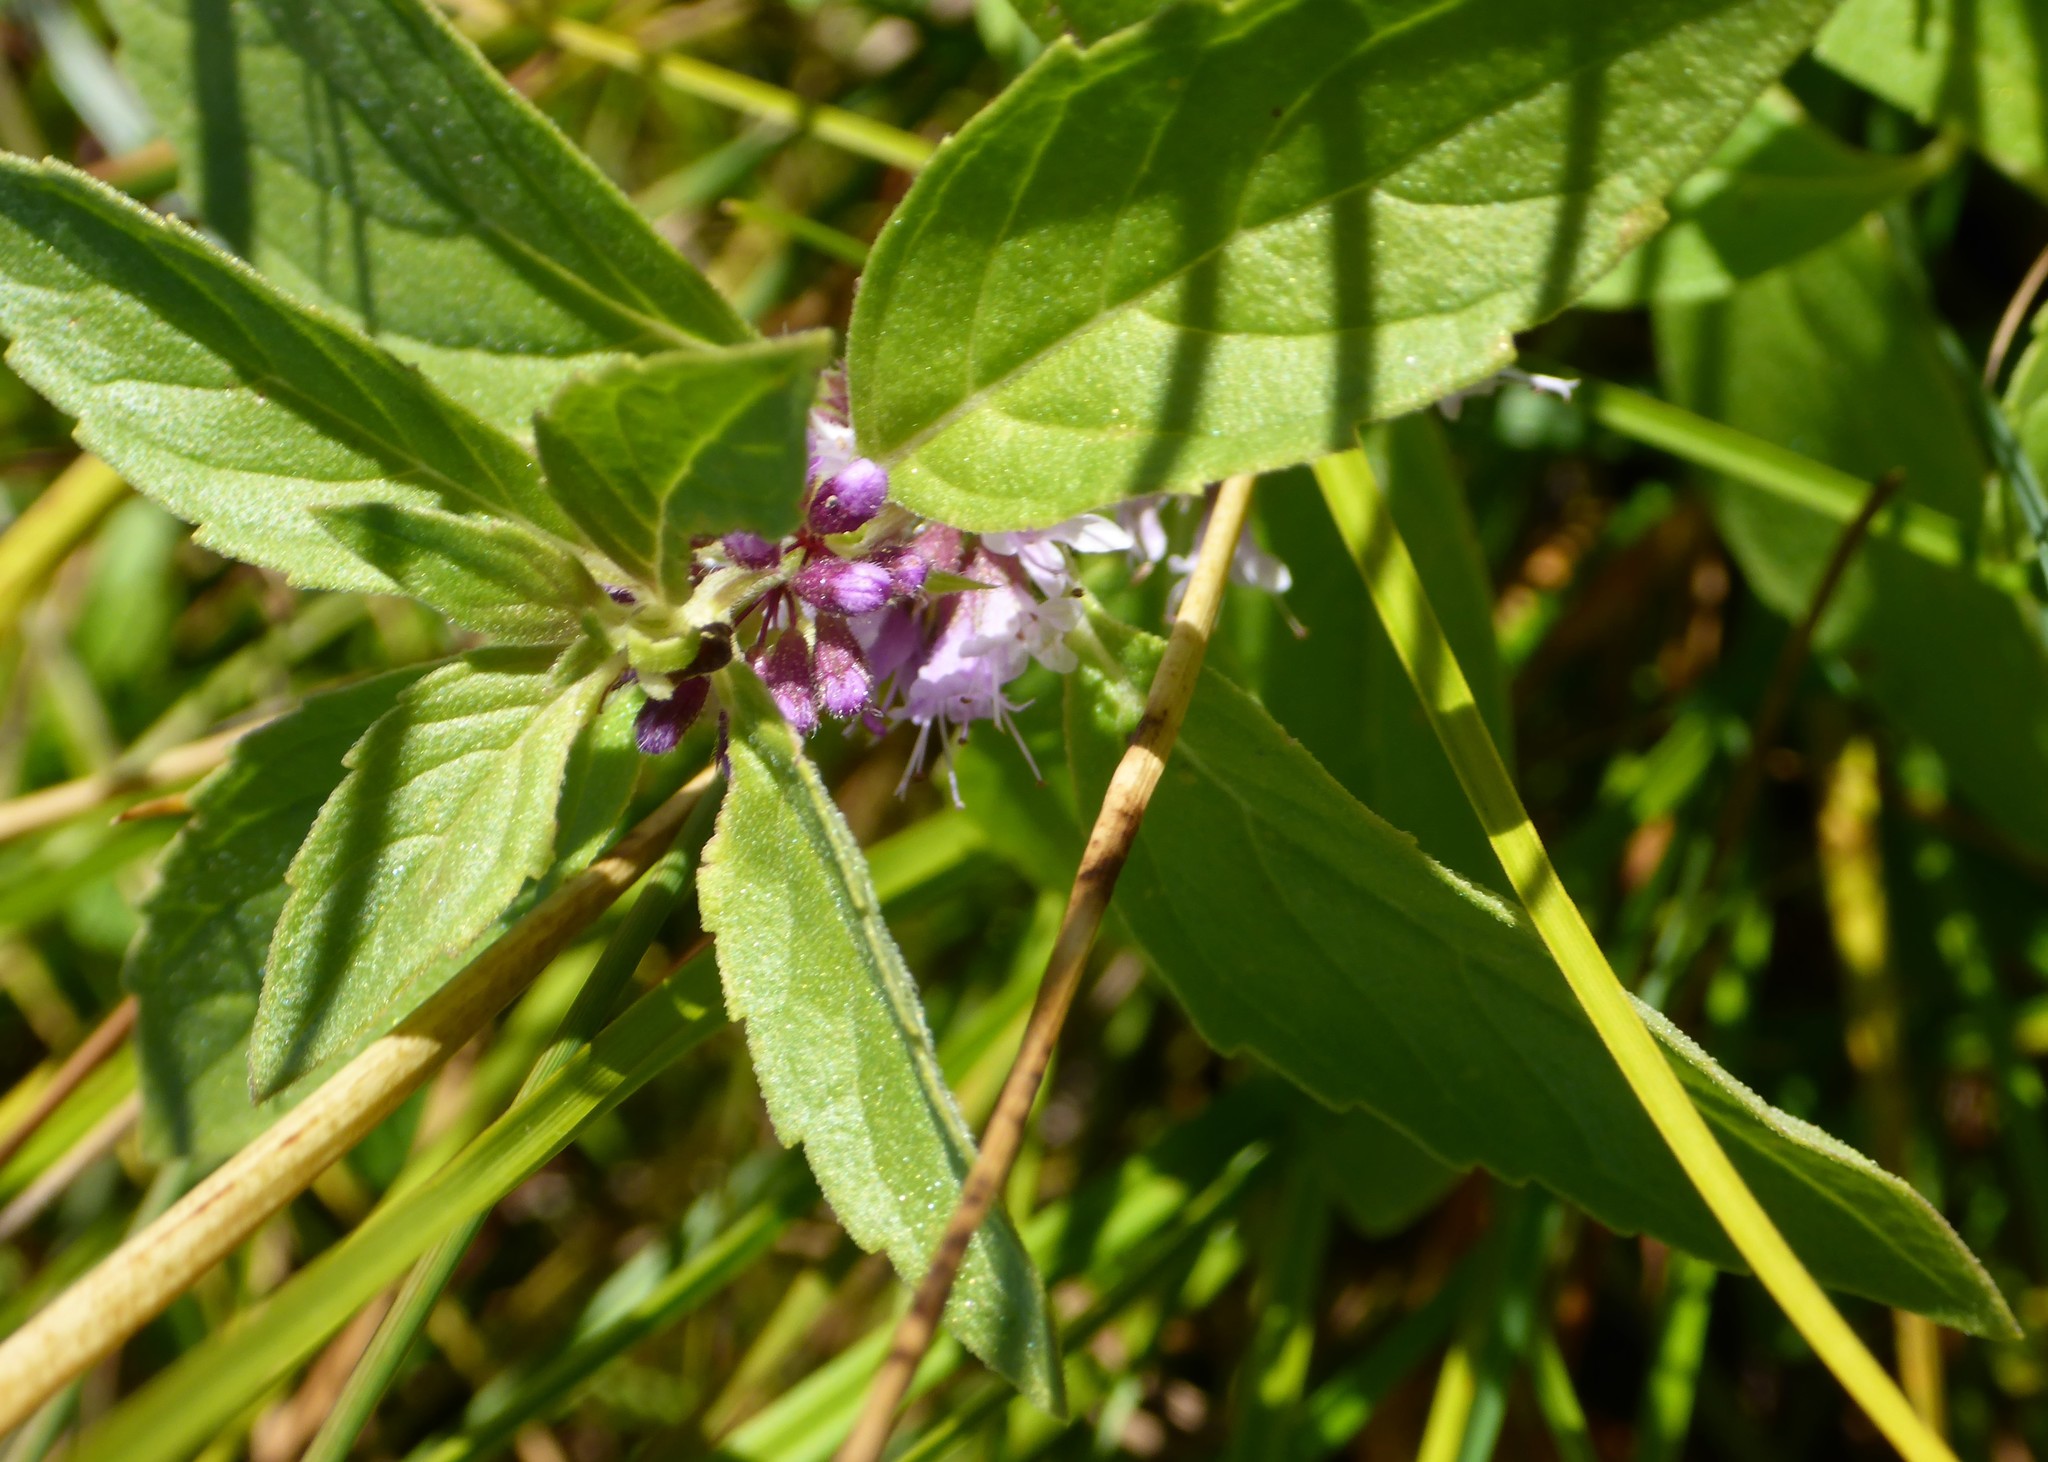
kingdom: Plantae
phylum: Tracheophyta
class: Magnoliopsida
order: Lamiales
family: Lamiaceae
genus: Mentha
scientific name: Mentha canadensis
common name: American corn mint
